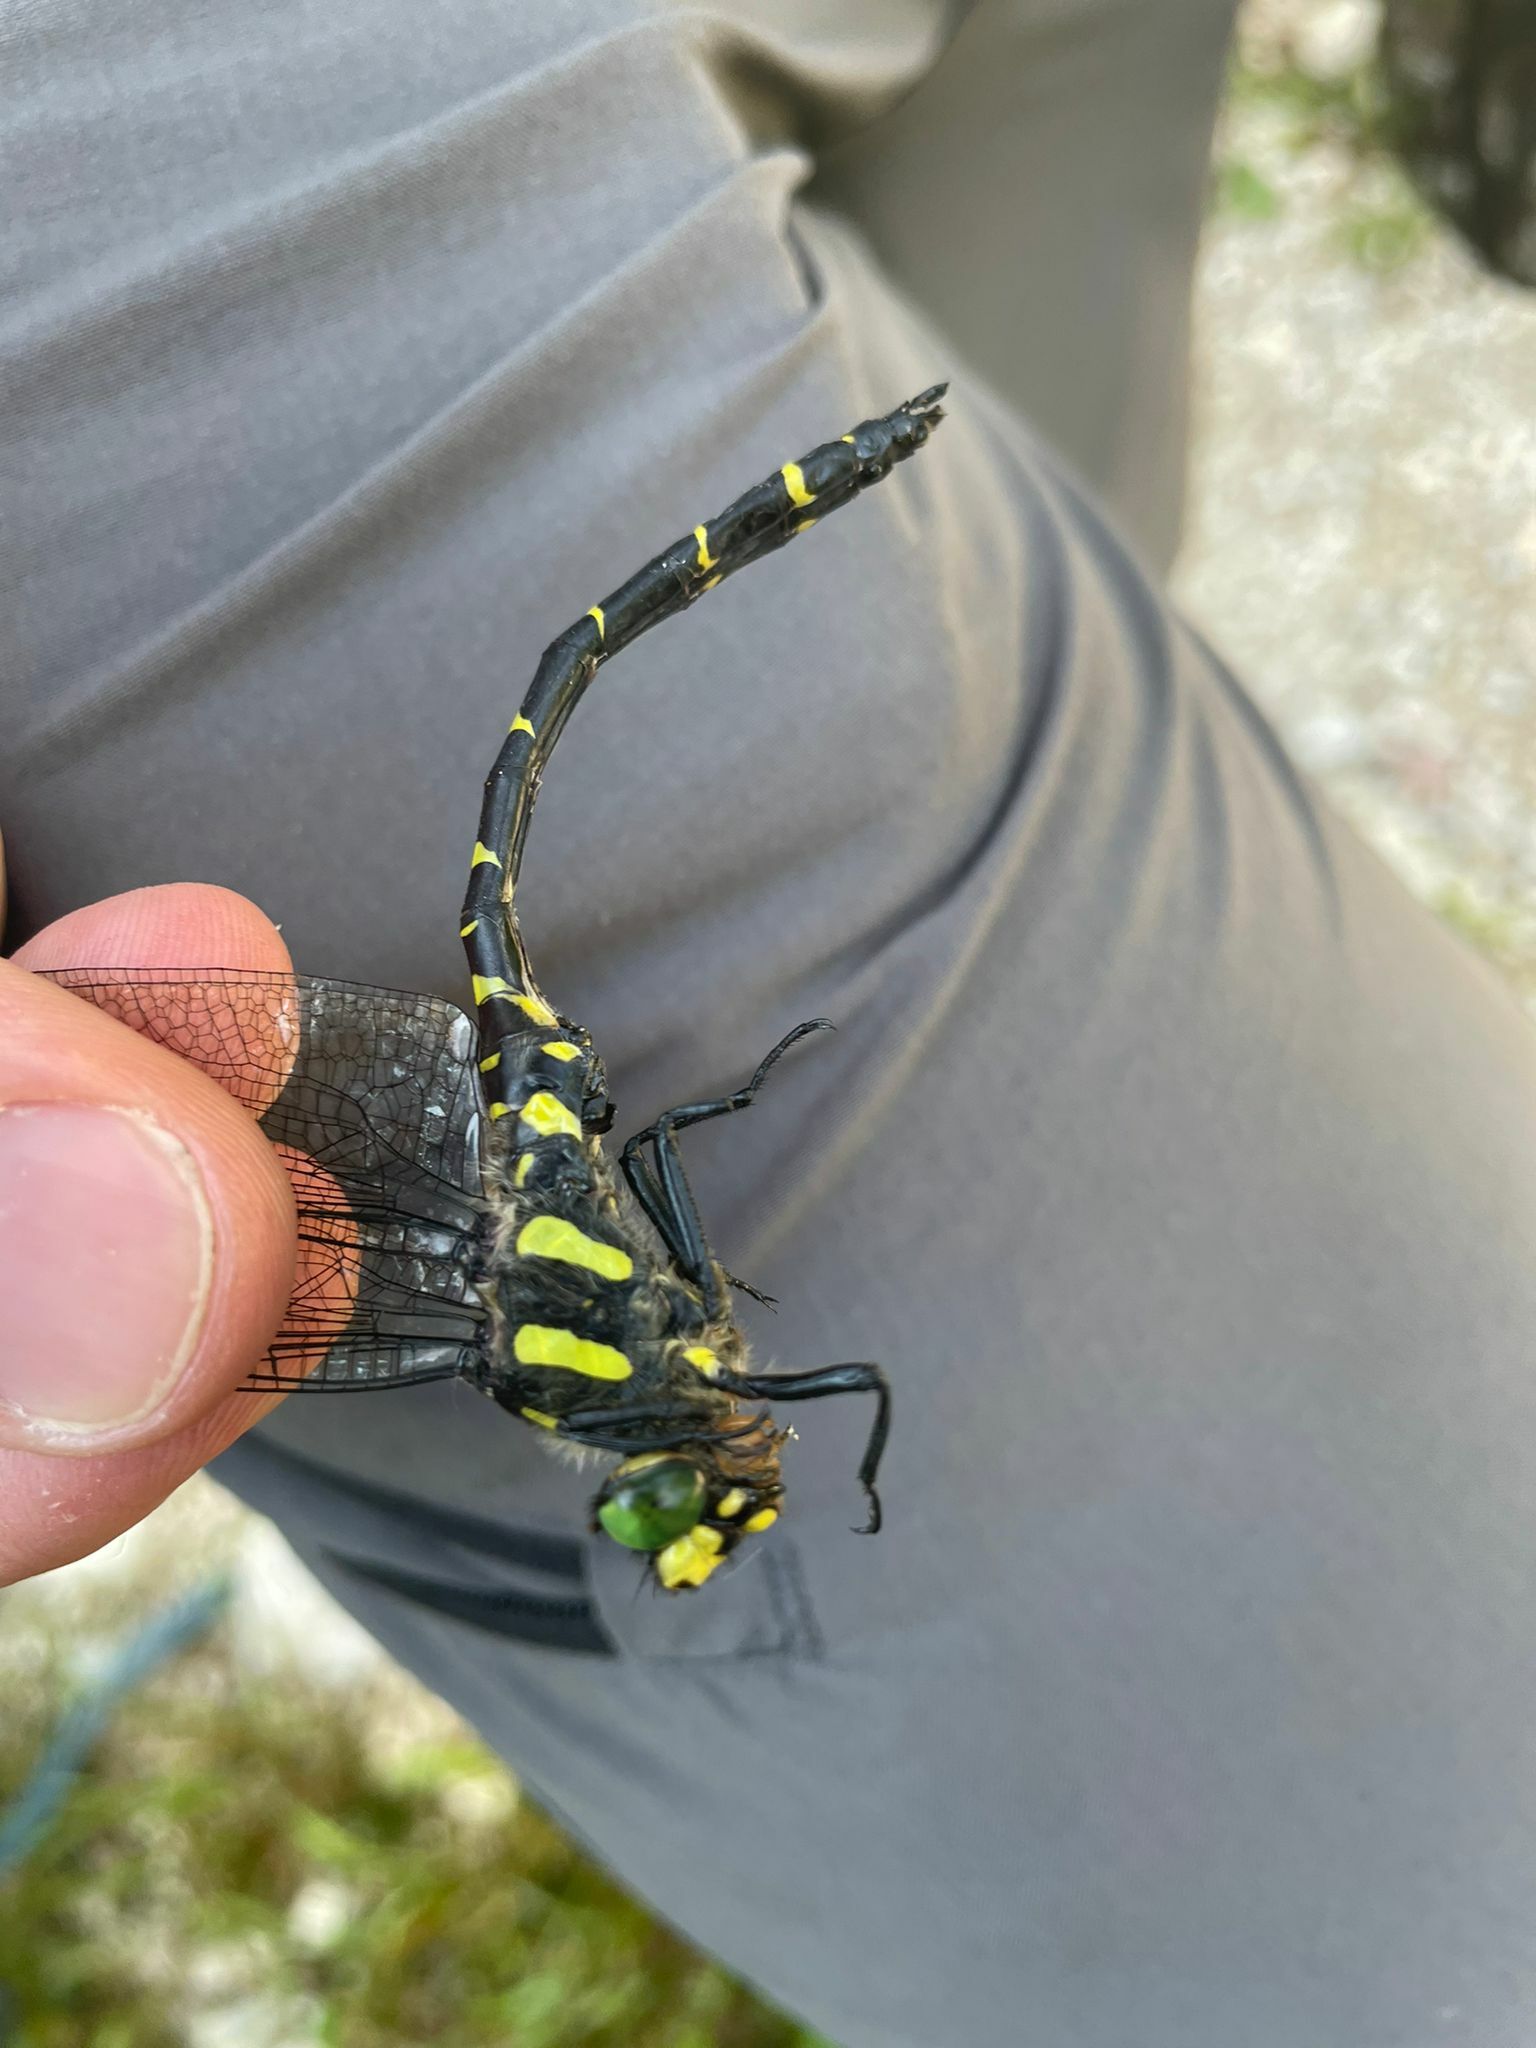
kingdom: Animalia
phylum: Arthropoda
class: Insecta
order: Odonata
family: Cordulegastridae
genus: Cordulegaster
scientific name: Cordulegaster bidentata
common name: Sombre goldenring
